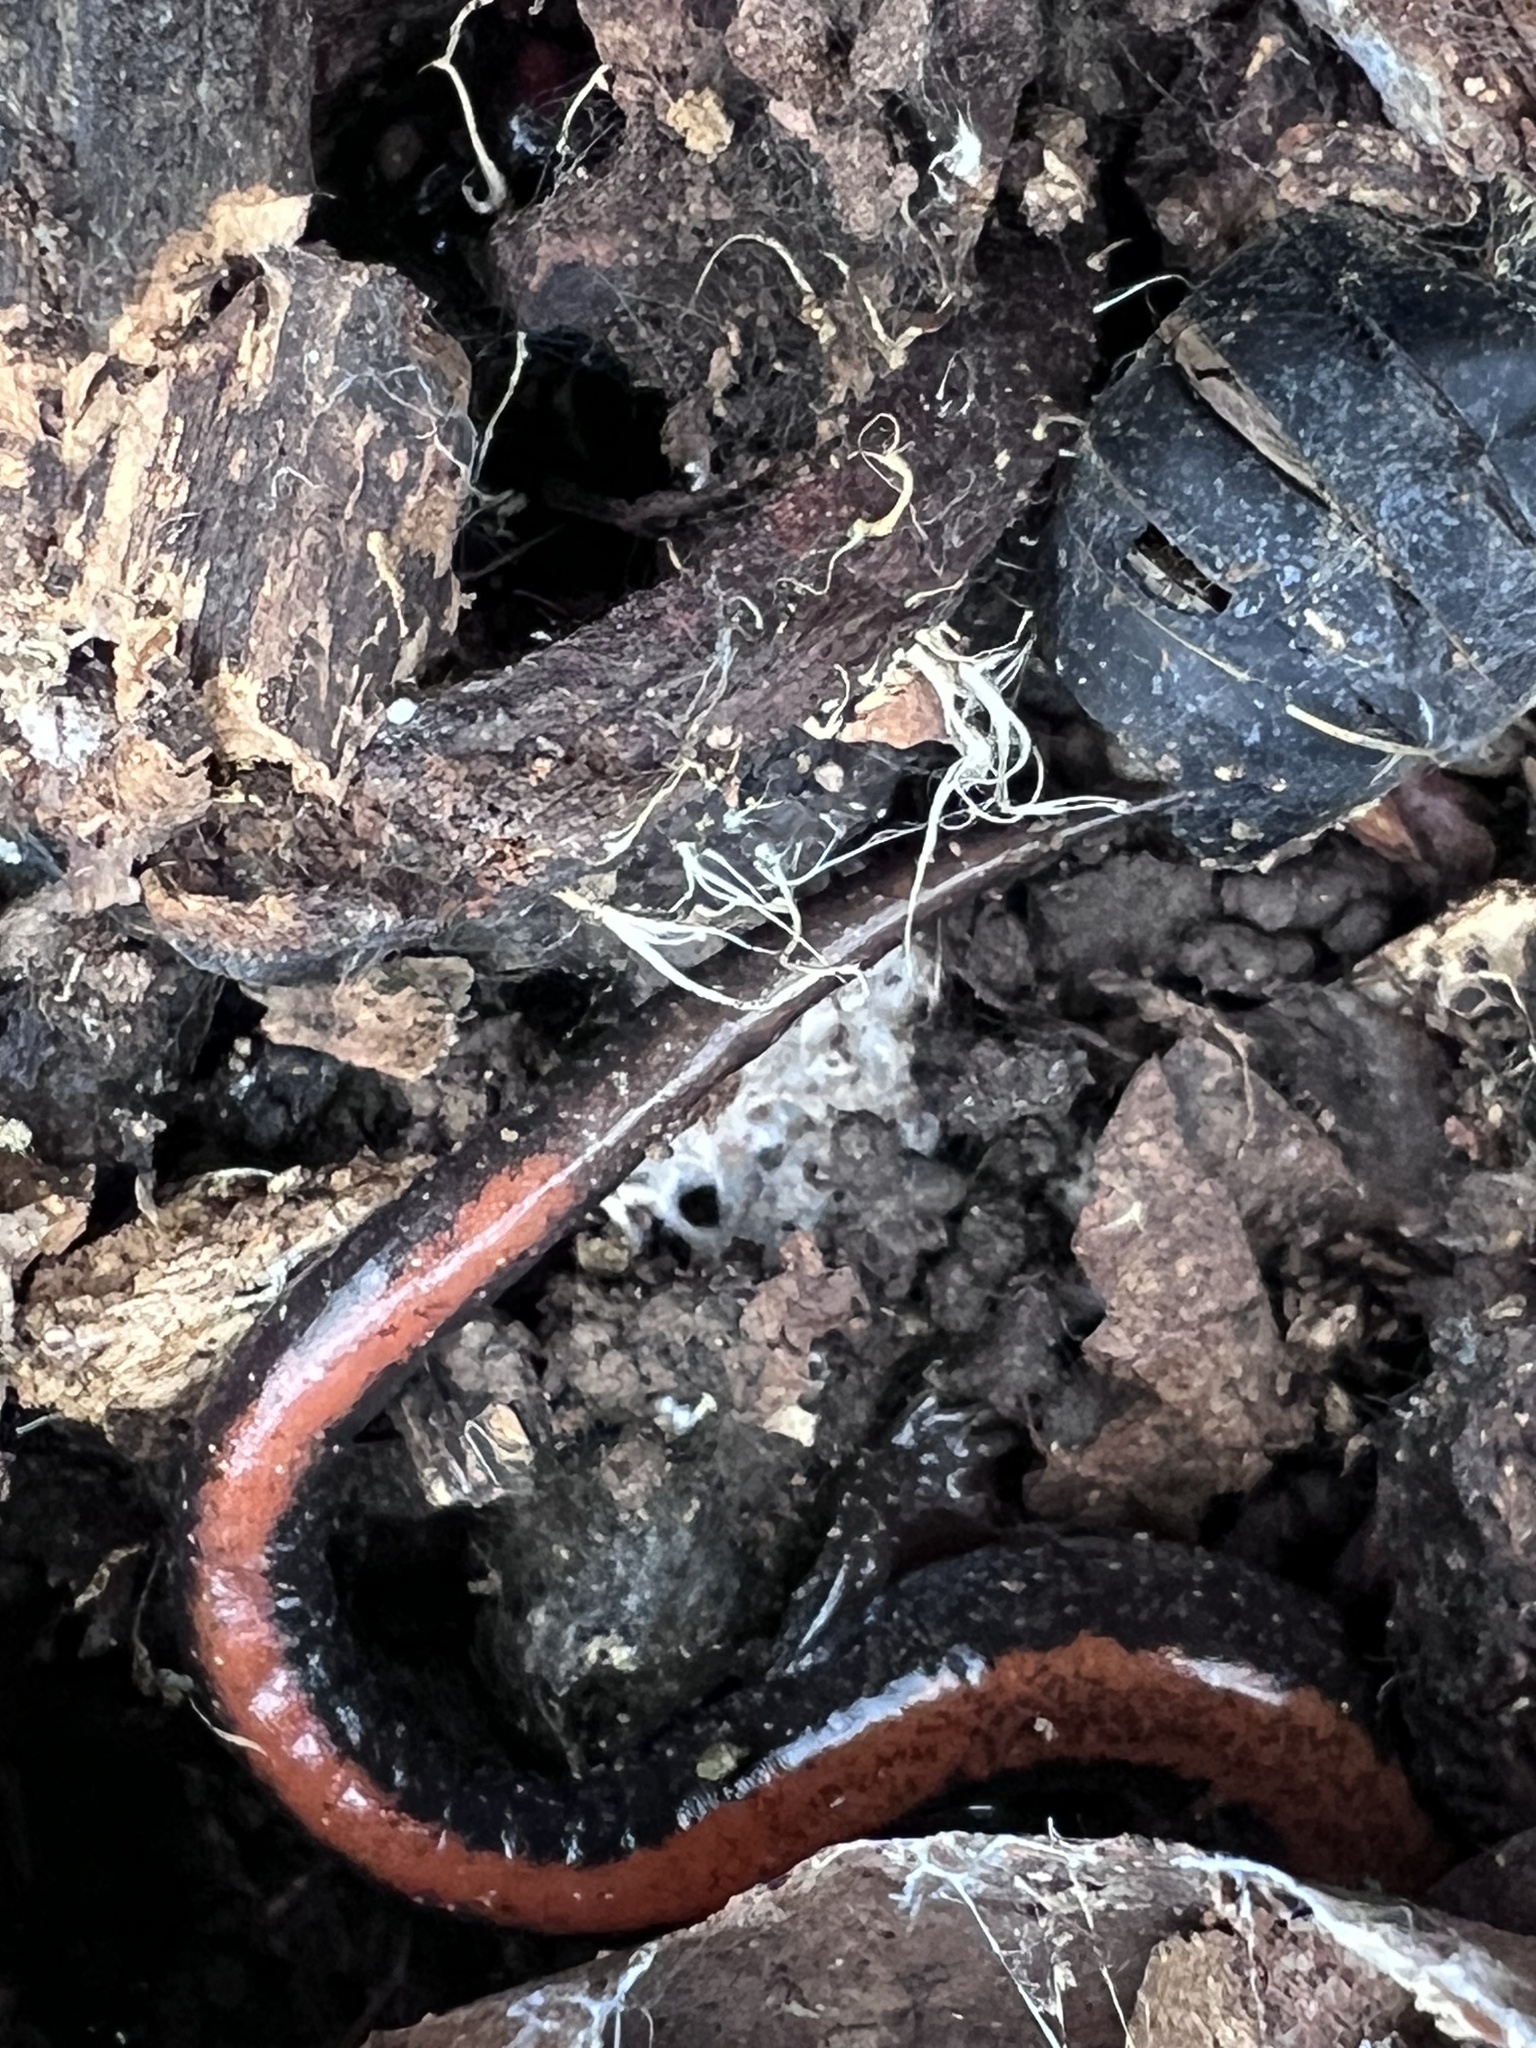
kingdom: Animalia
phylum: Chordata
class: Amphibia
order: Caudata
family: Plethodontidae
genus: Plethodon
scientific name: Plethodon cinereus
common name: Redback salamander
